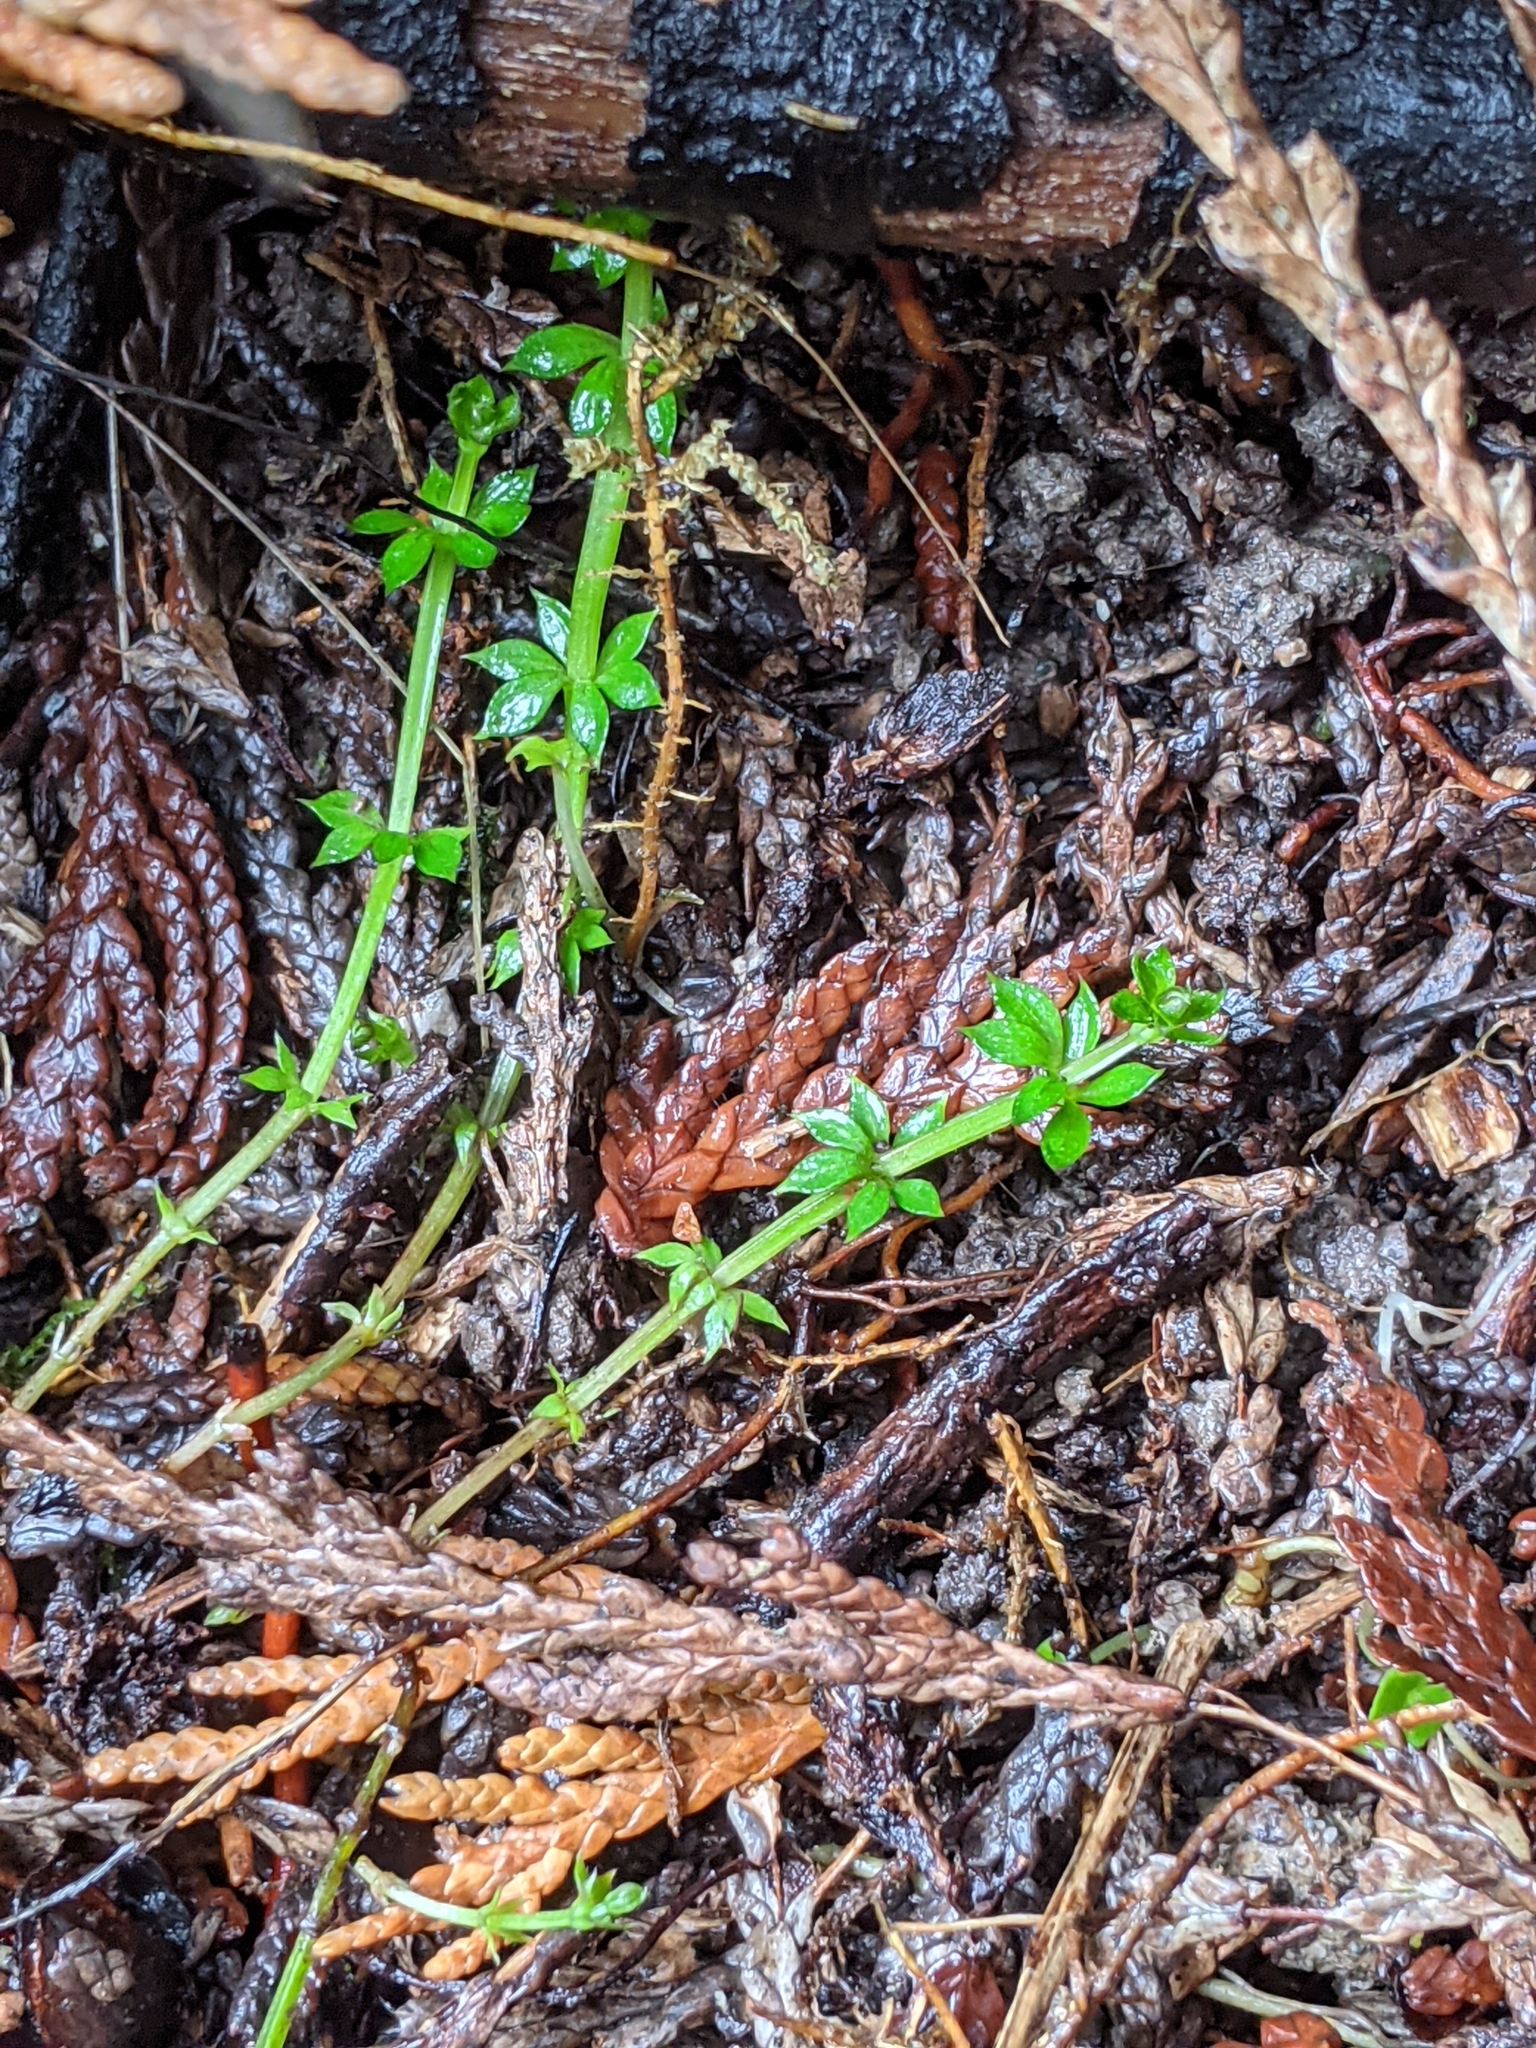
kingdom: Plantae
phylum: Tracheophyta
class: Magnoliopsida
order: Gentianales
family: Rubiaceae
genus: Galium
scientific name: Galium triflorum
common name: Fragrant bedstraw
